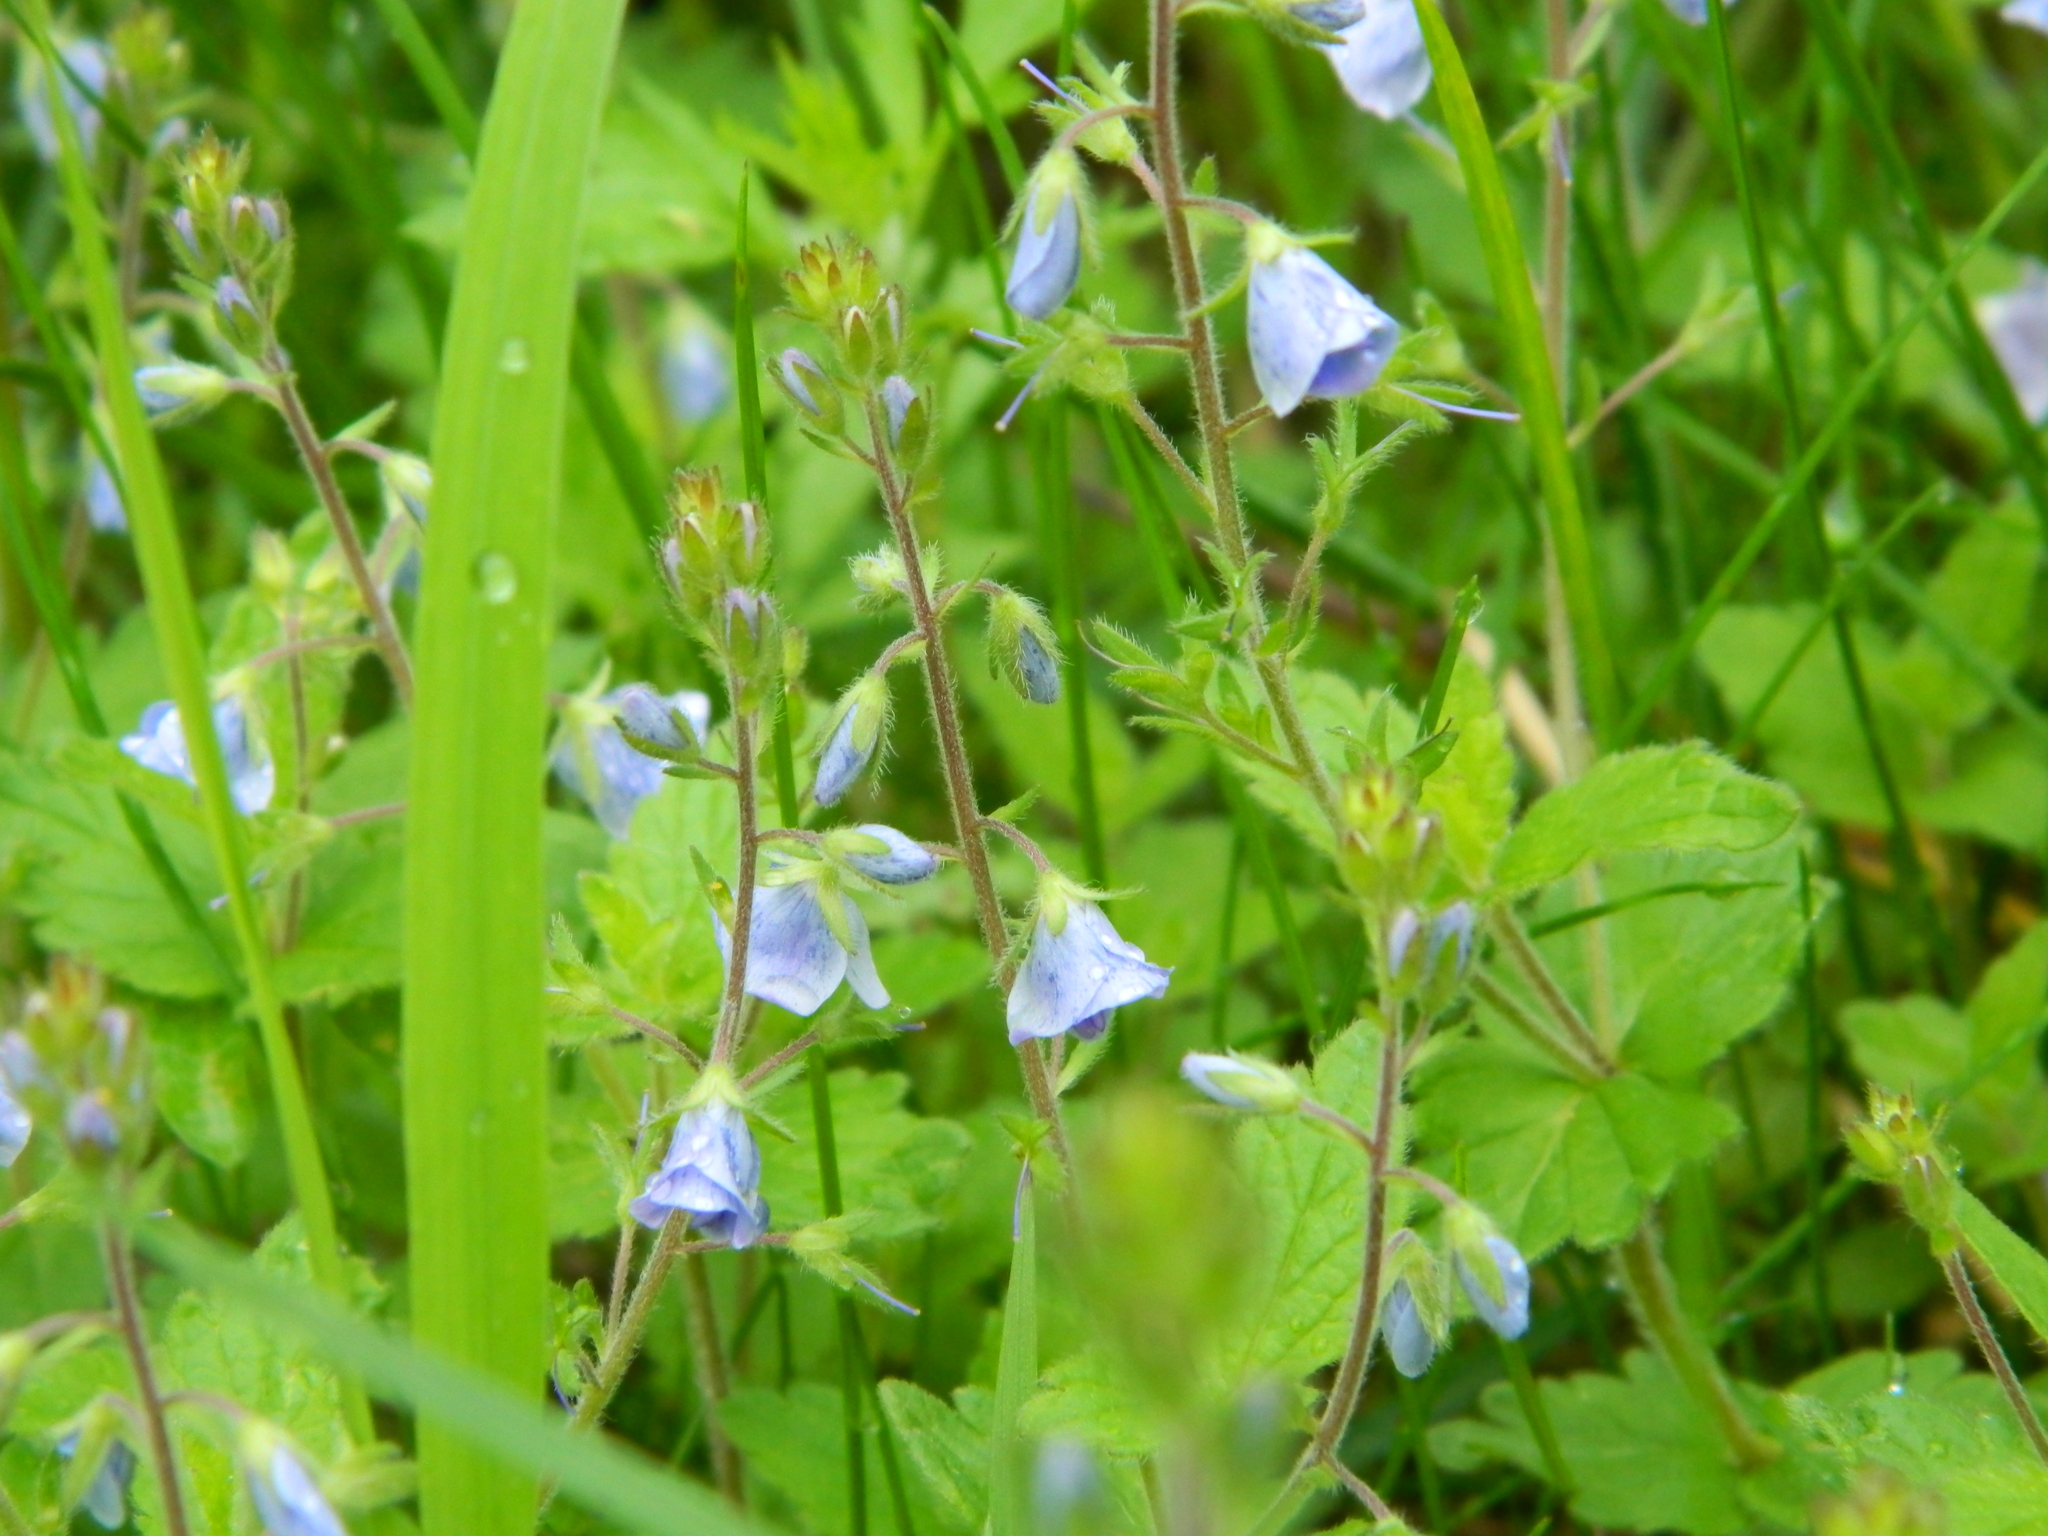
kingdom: Plantae
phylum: Tracheophyta
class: Magnoliopsida
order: Lamiales
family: Plantaginaceae
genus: Veronica
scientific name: Veronica chamaedrys
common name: Germander speedwell
